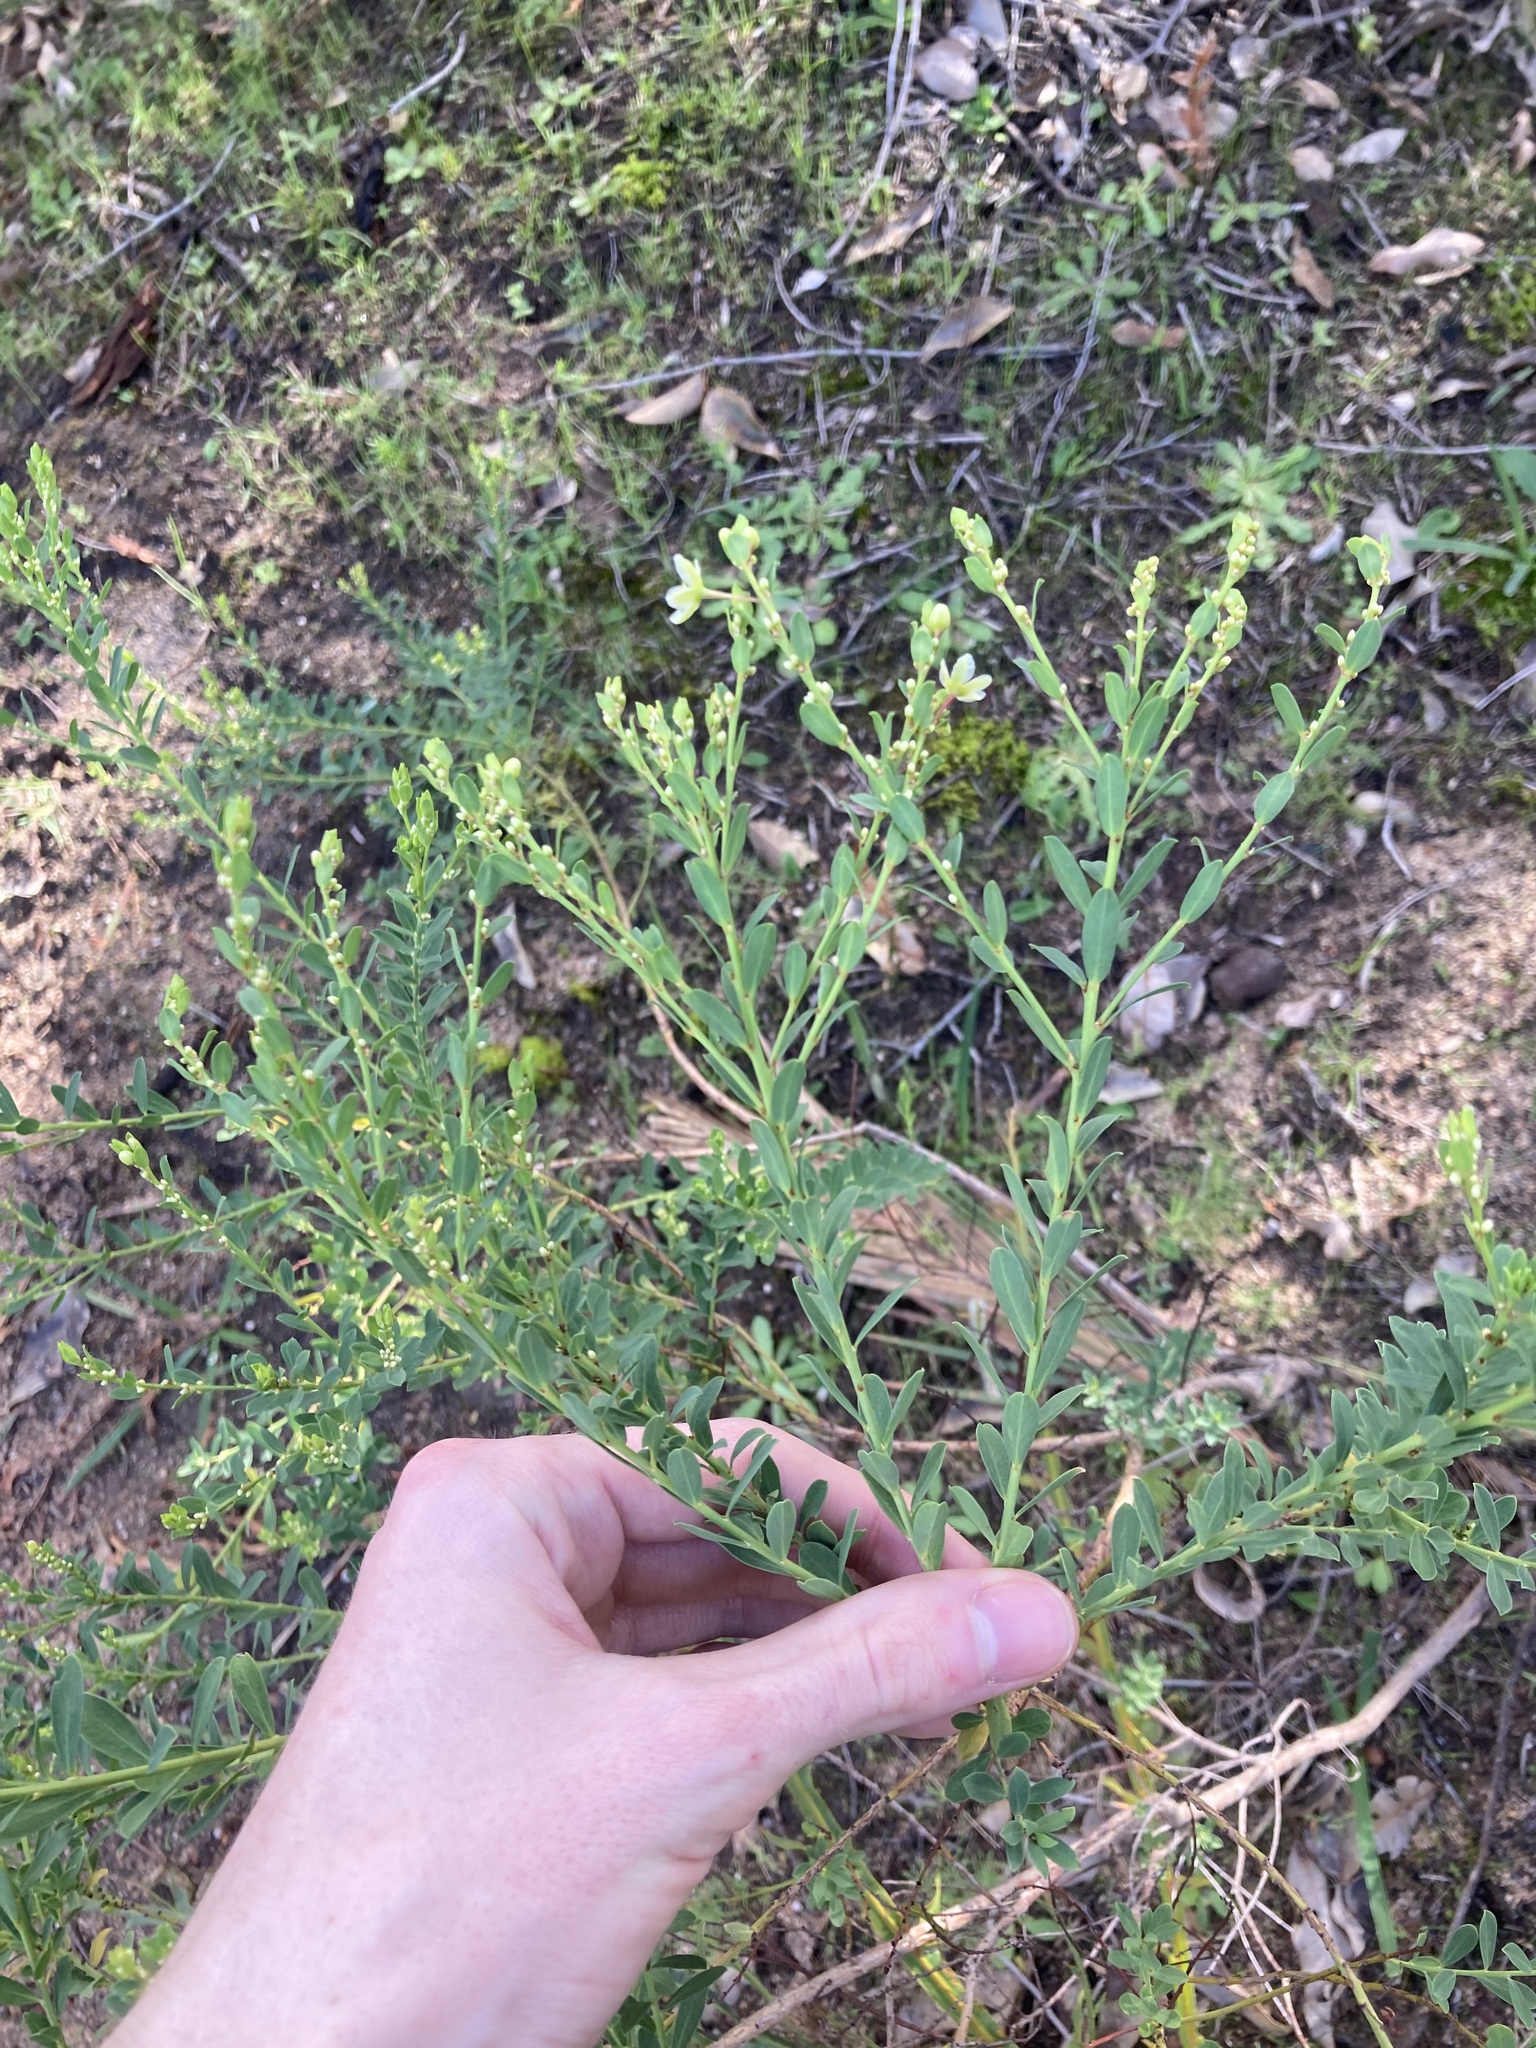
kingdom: Plantae
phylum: Tracheophyta
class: Magnoliopsida
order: Malpighiales
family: Phyllanthaceae
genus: Phyllanthus
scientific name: Phyllanthus calycinus
